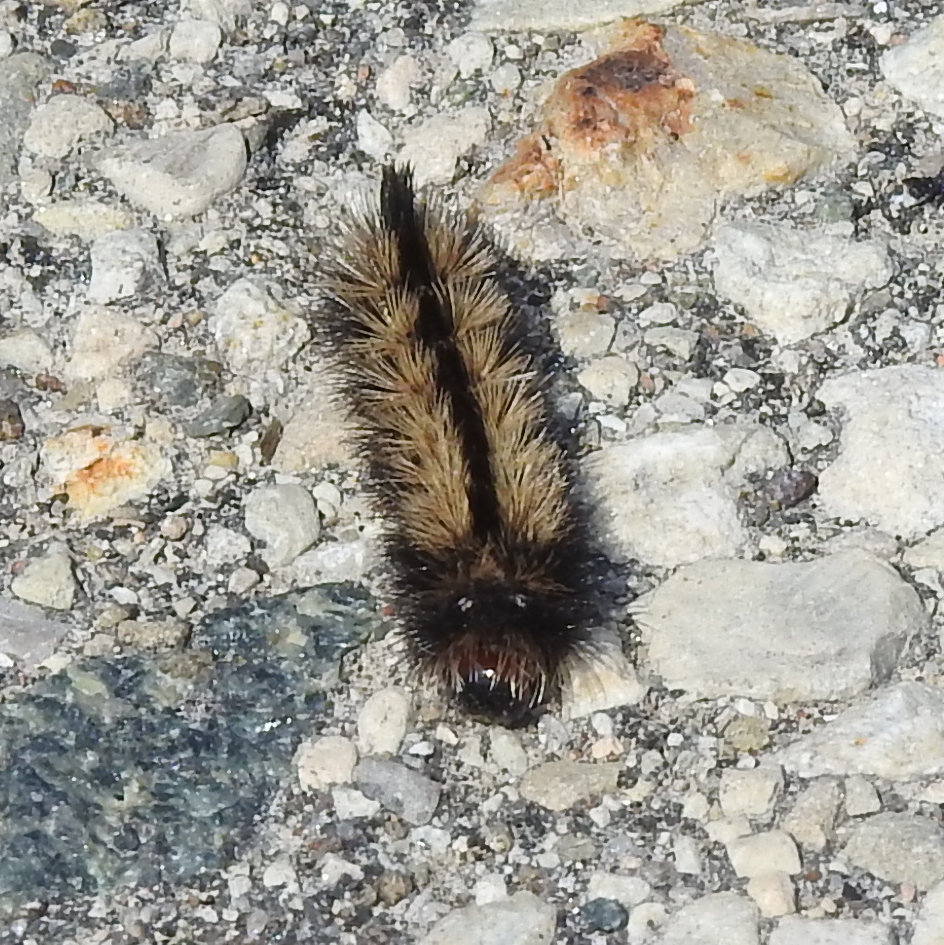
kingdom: Animalia
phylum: Arthropoda
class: Insecta
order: Lepidoptera
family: Erebidae
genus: Ctenucha
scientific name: Ctenucha virginica
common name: Virginia ctenucha moth
